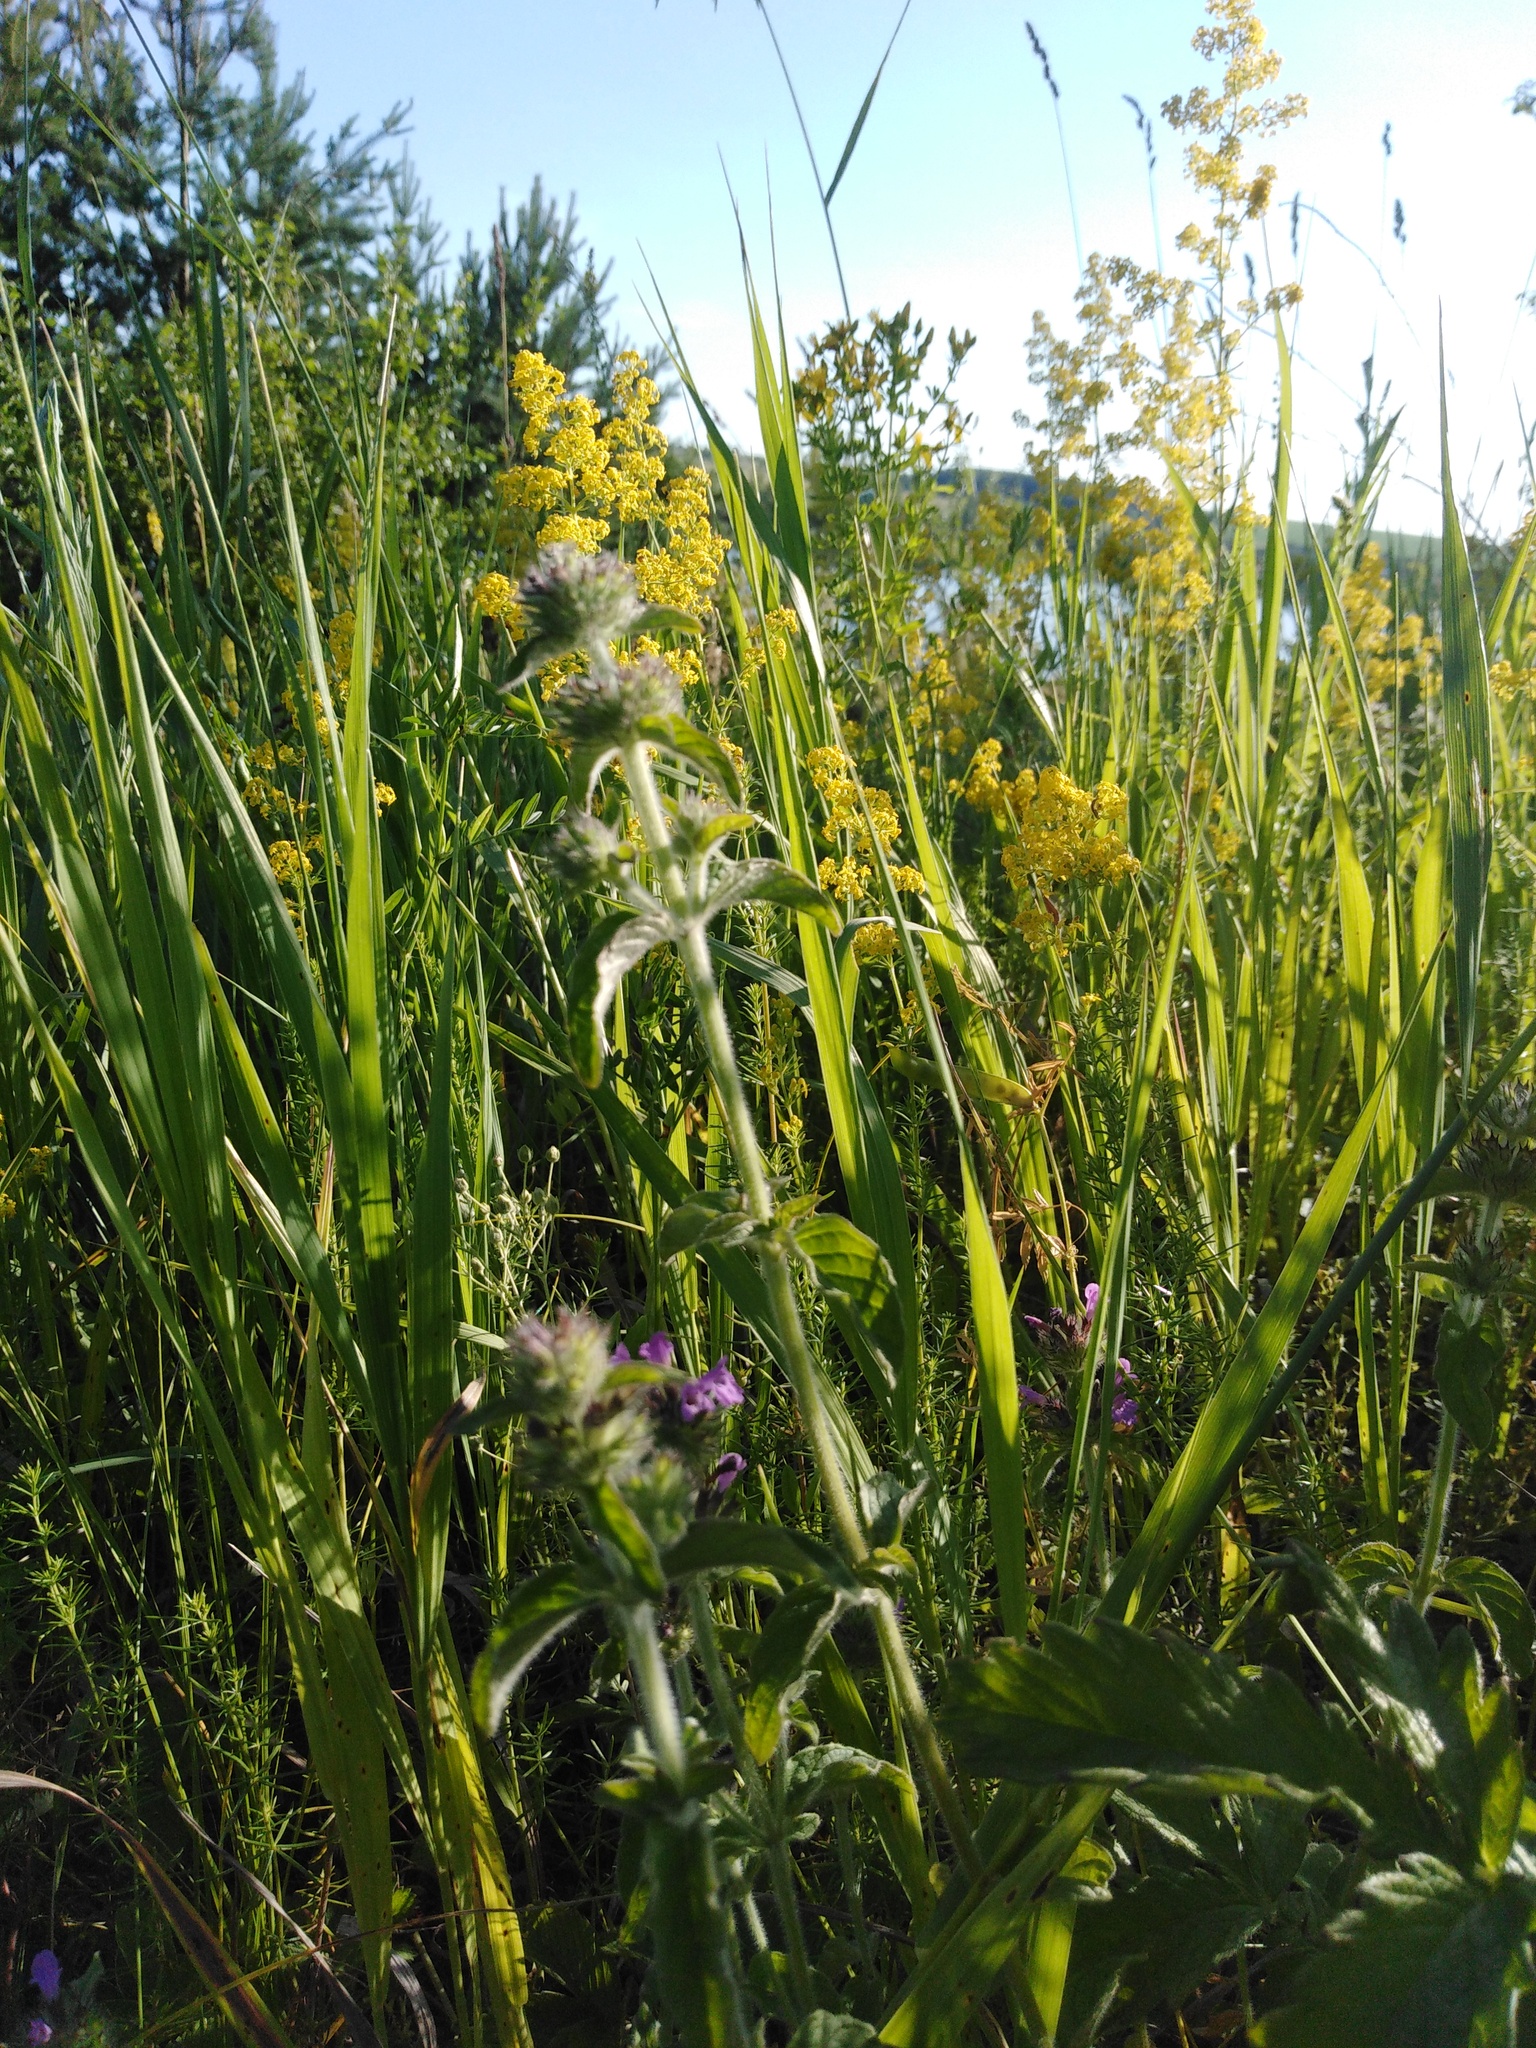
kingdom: Plantae
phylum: Tracheophyta
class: Magnoliopsida
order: Lamiales
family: Lamiaceae
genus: Clinopodium
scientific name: Clinopodium vulgare
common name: Wild basil
